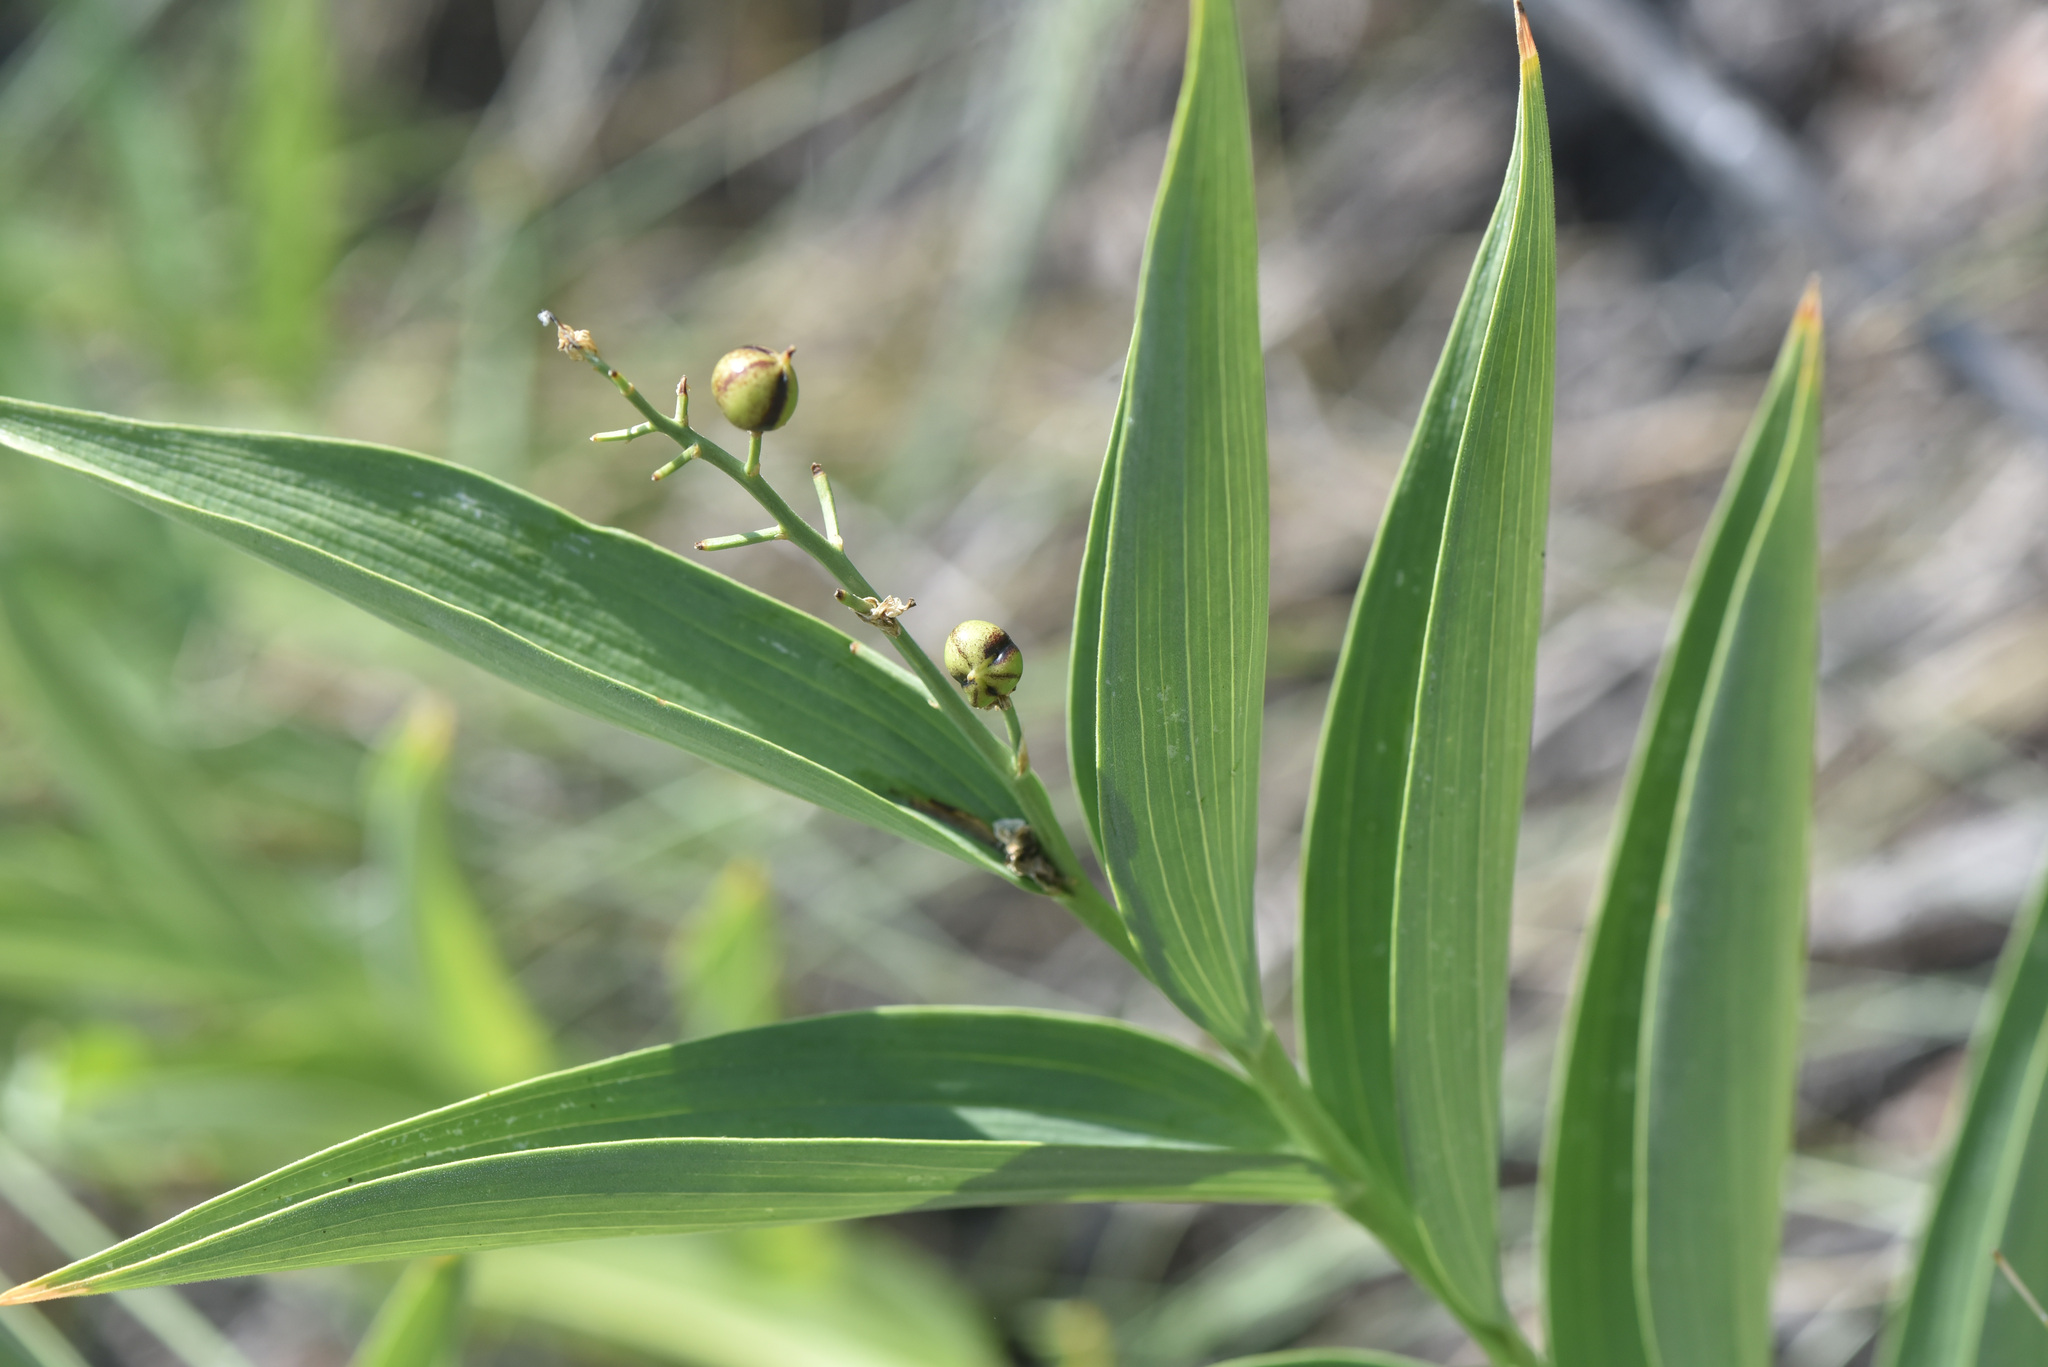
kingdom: Plantae
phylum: Tracheophyta
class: Liliopsida
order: Asparagales
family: Asparagaceae
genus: Maianthemum
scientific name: Maianthemum stellatum
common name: Little false solomon's seal
